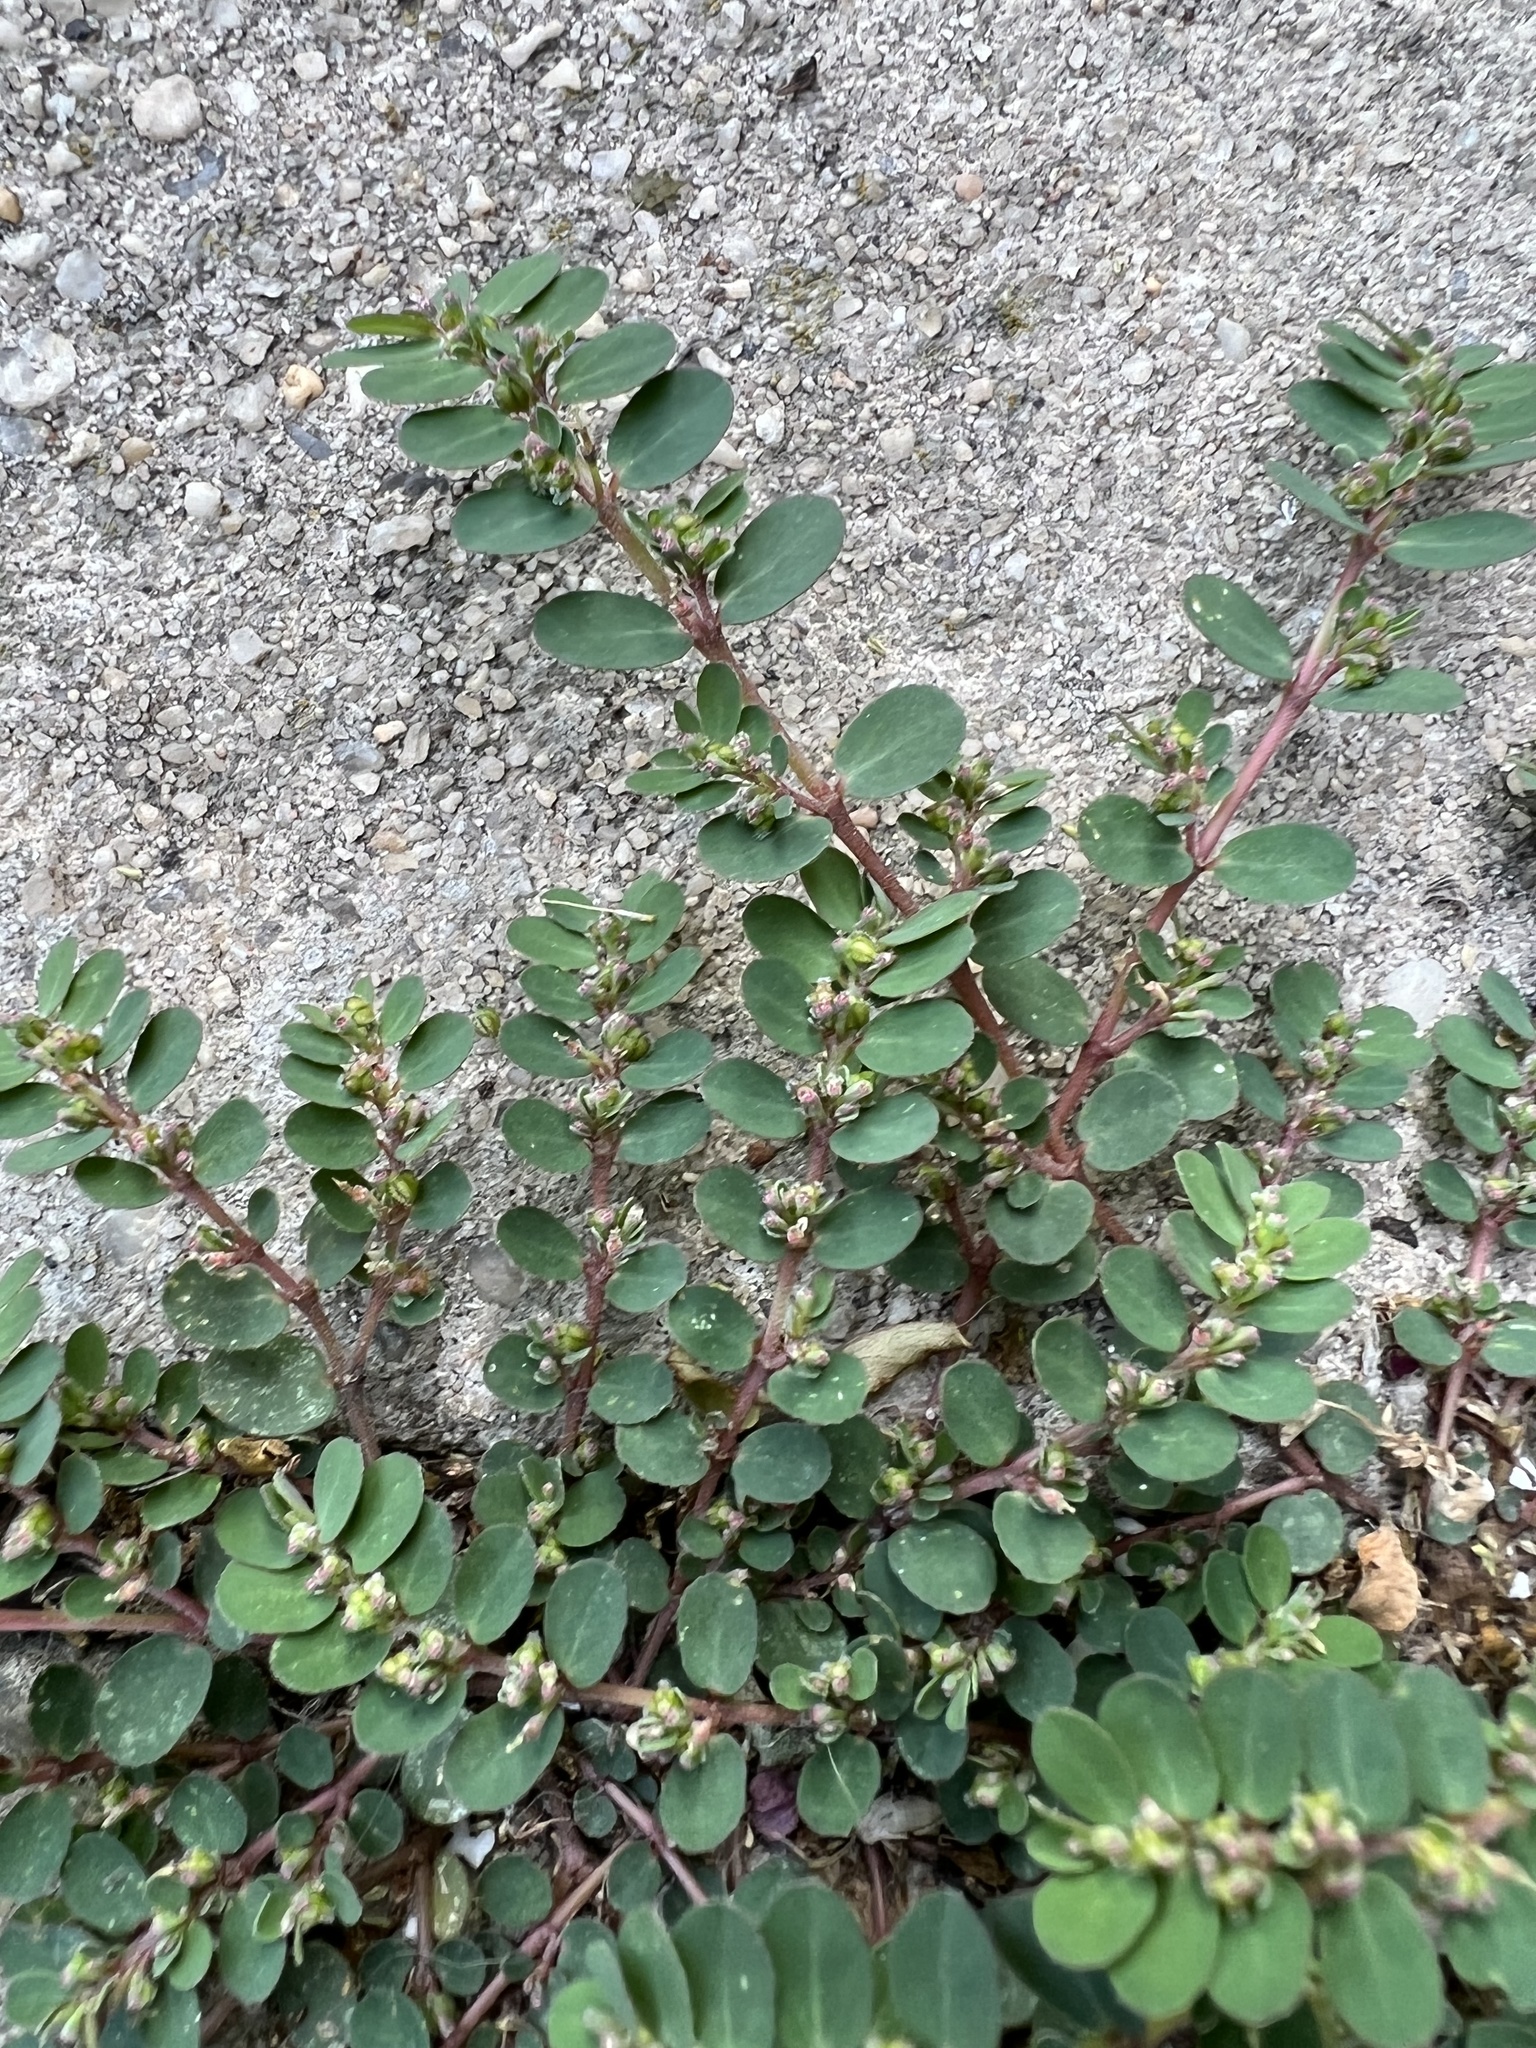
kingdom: Plantae
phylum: Tracheophyta
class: Magnoliopsida
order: Malpighiales
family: Euphorbiaceae
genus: Euphorbia
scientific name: Euphorbia prostrata
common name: Prostrate sandmat
